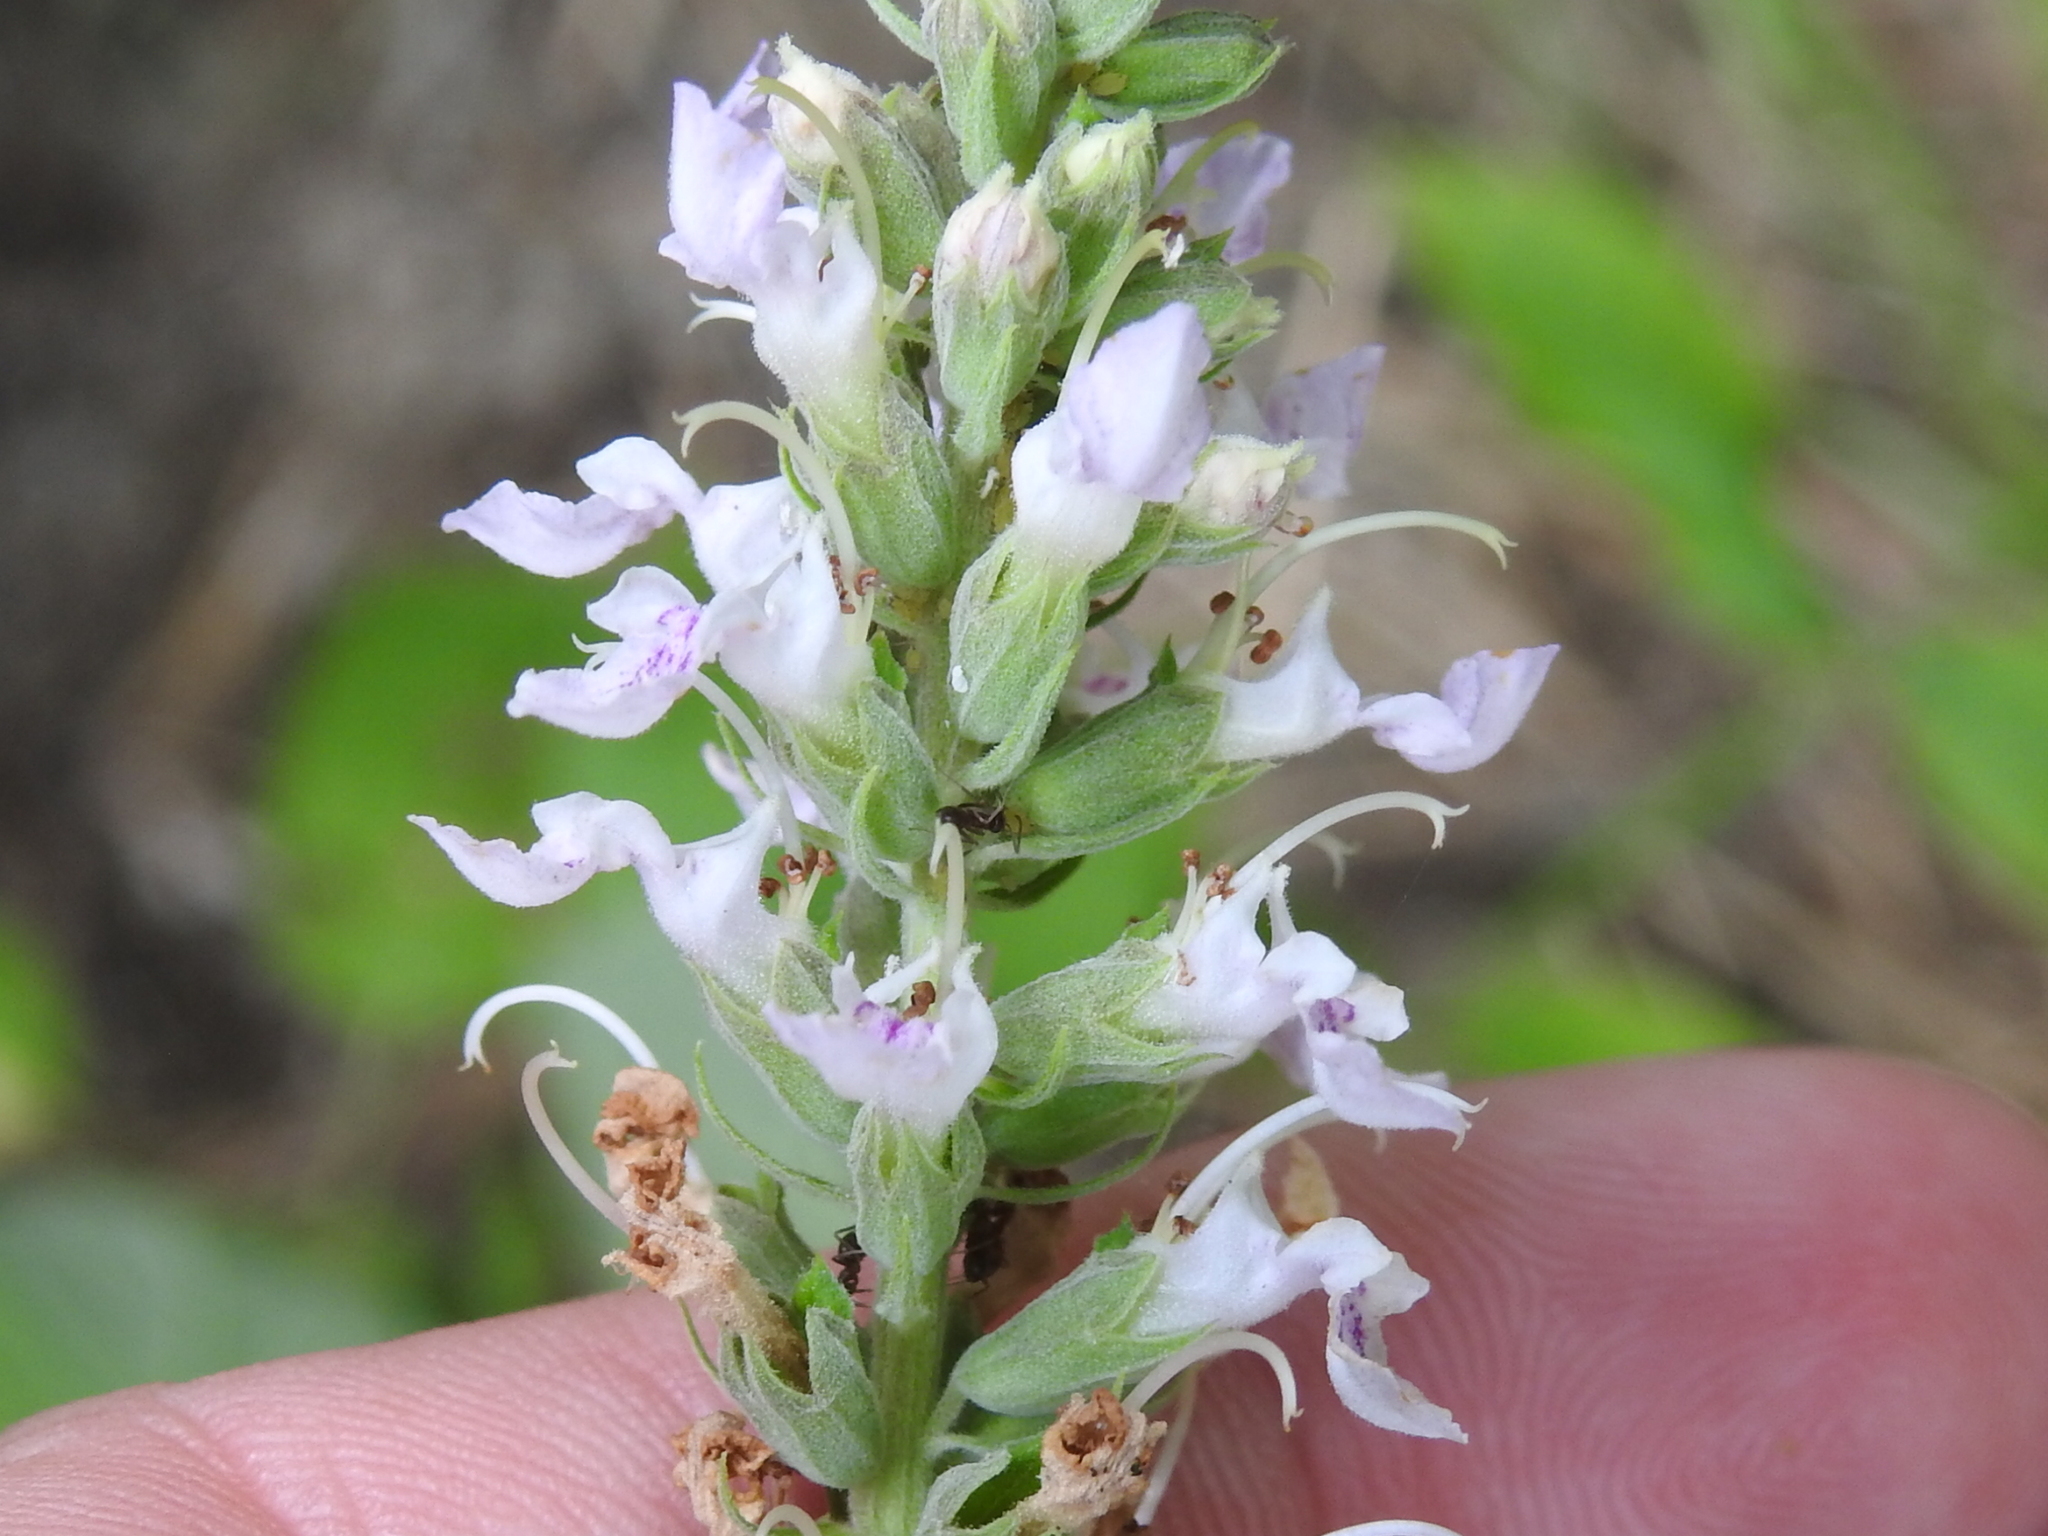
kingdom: Plantae
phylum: Tracheophyta
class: Magnoliopsida
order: Lamiales
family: Lamiaceae
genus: Teucrium
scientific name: Teucrium canadense
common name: American germander
